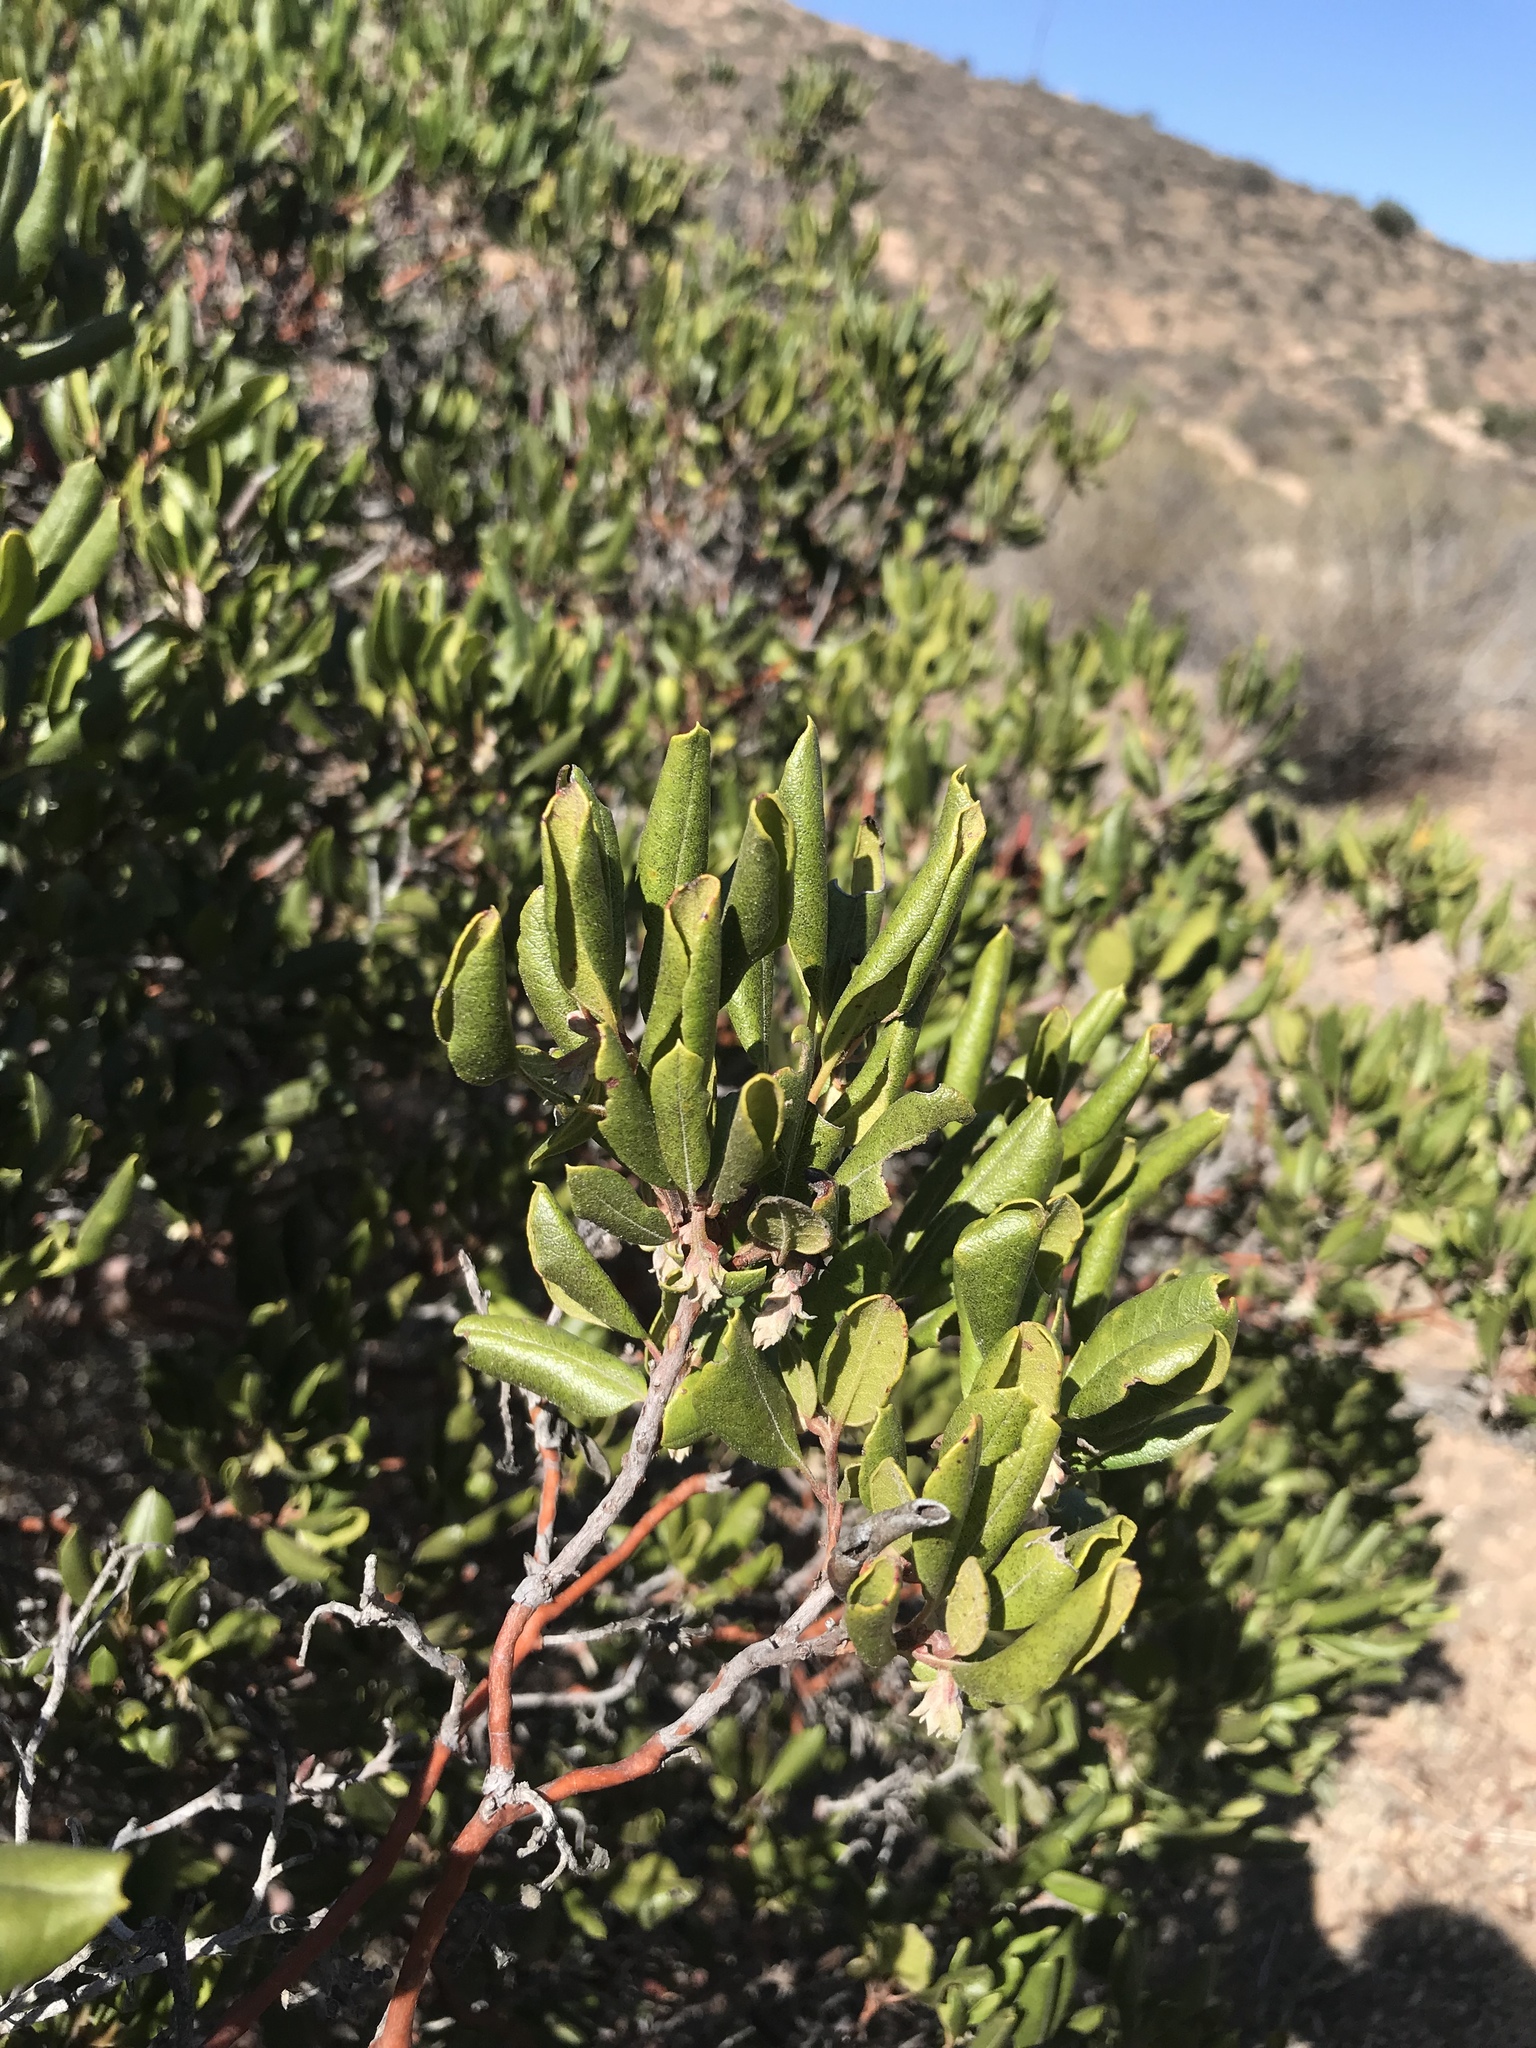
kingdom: Plantae
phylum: Tracheophyta
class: Magnoliopsida
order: Ericales
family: Ericaceae
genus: Arctostaphylos
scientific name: Arctostaphylos bicolor
